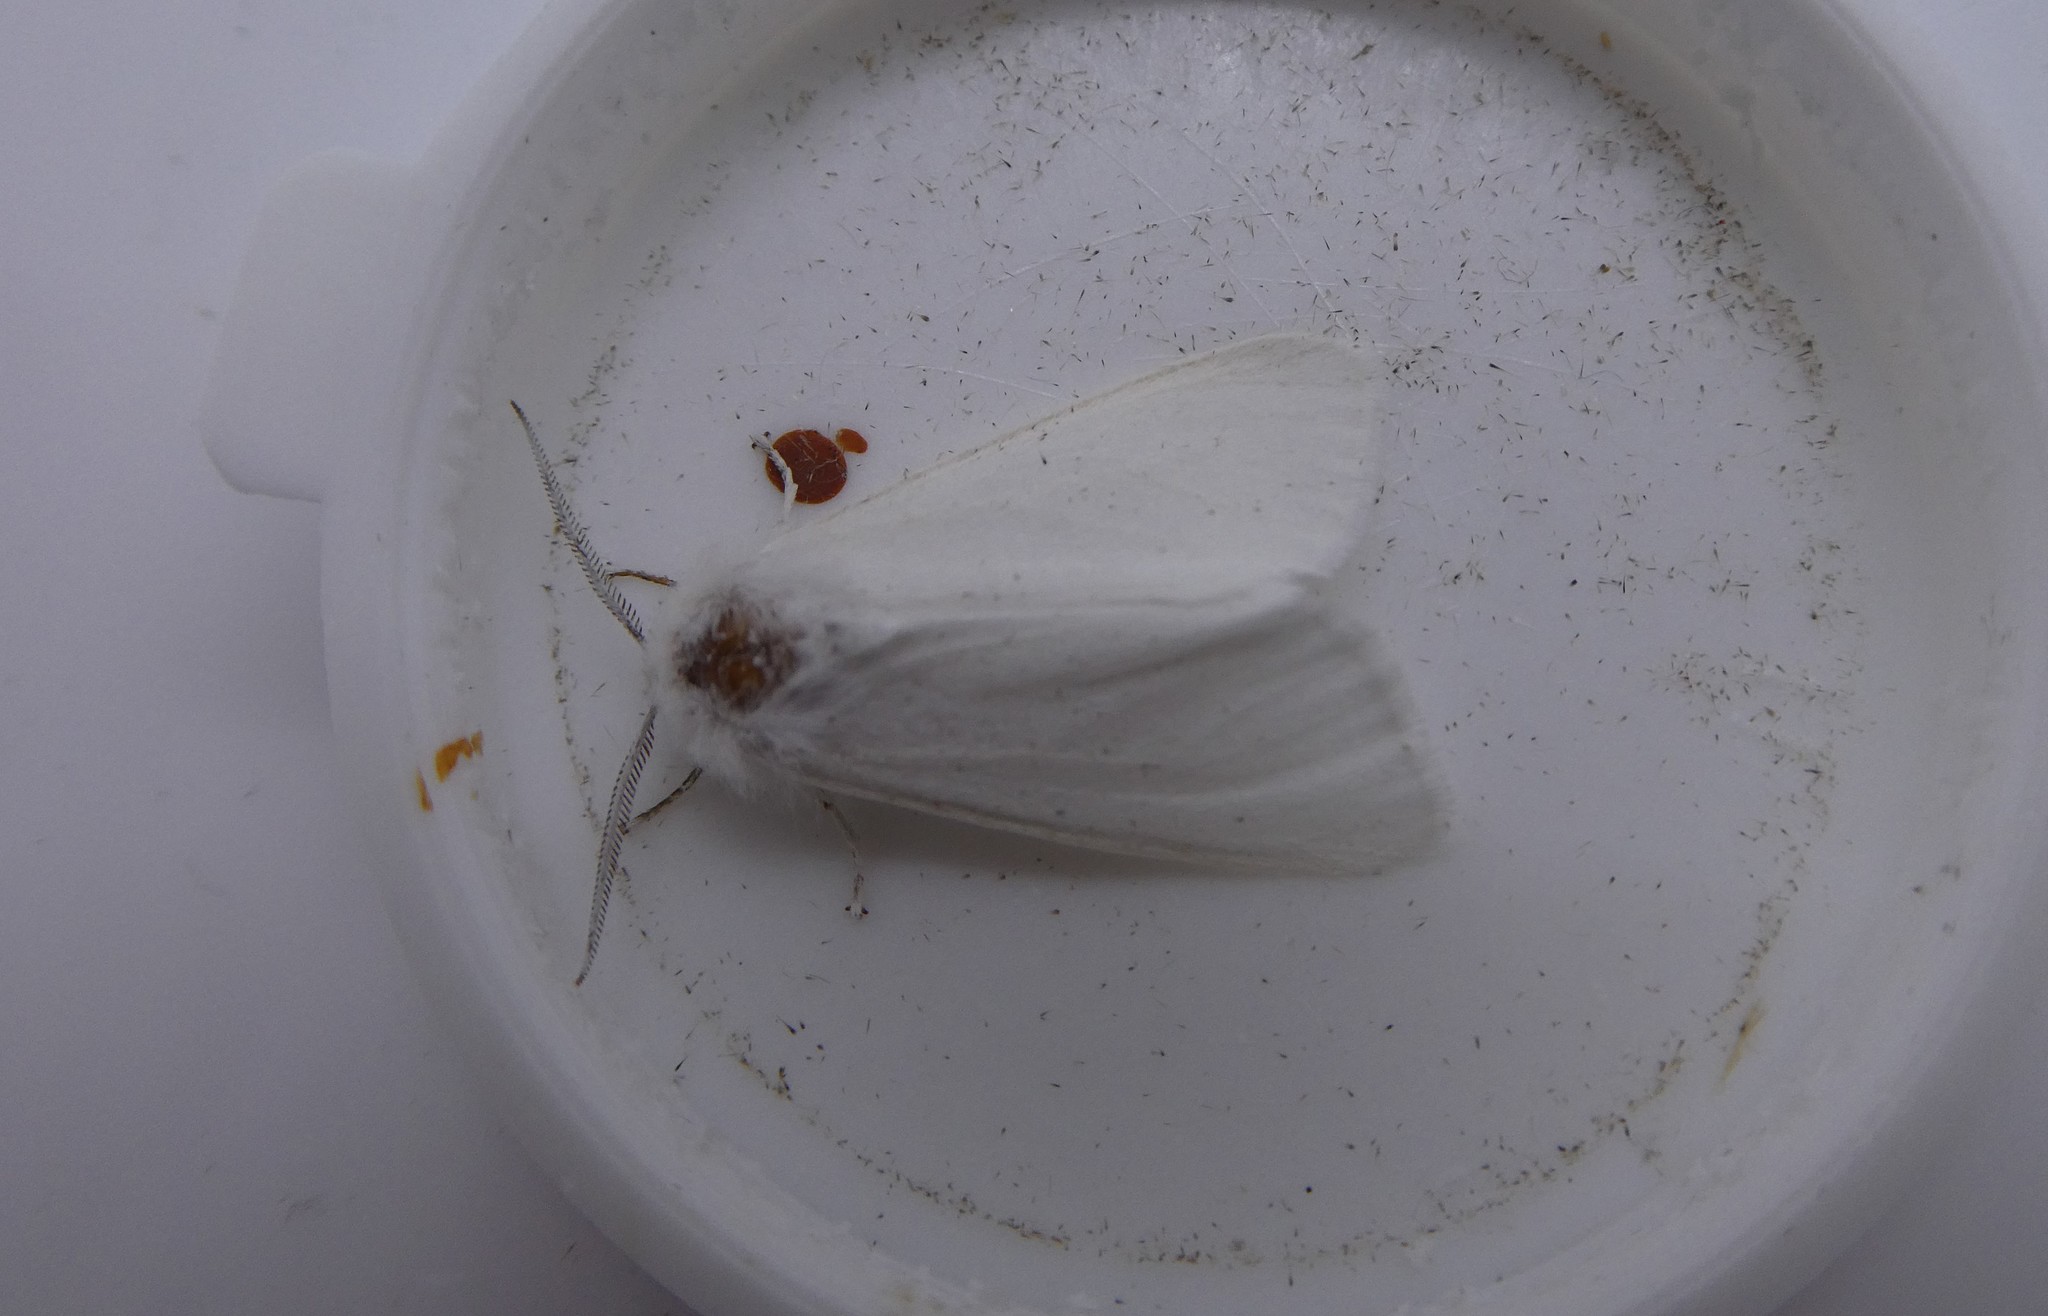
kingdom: Animalia
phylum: Arthropoda
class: Insecta
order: Lepidoptera
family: Erebidae
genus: Hyphantria
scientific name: Hyphantria cunea
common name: American white moth
